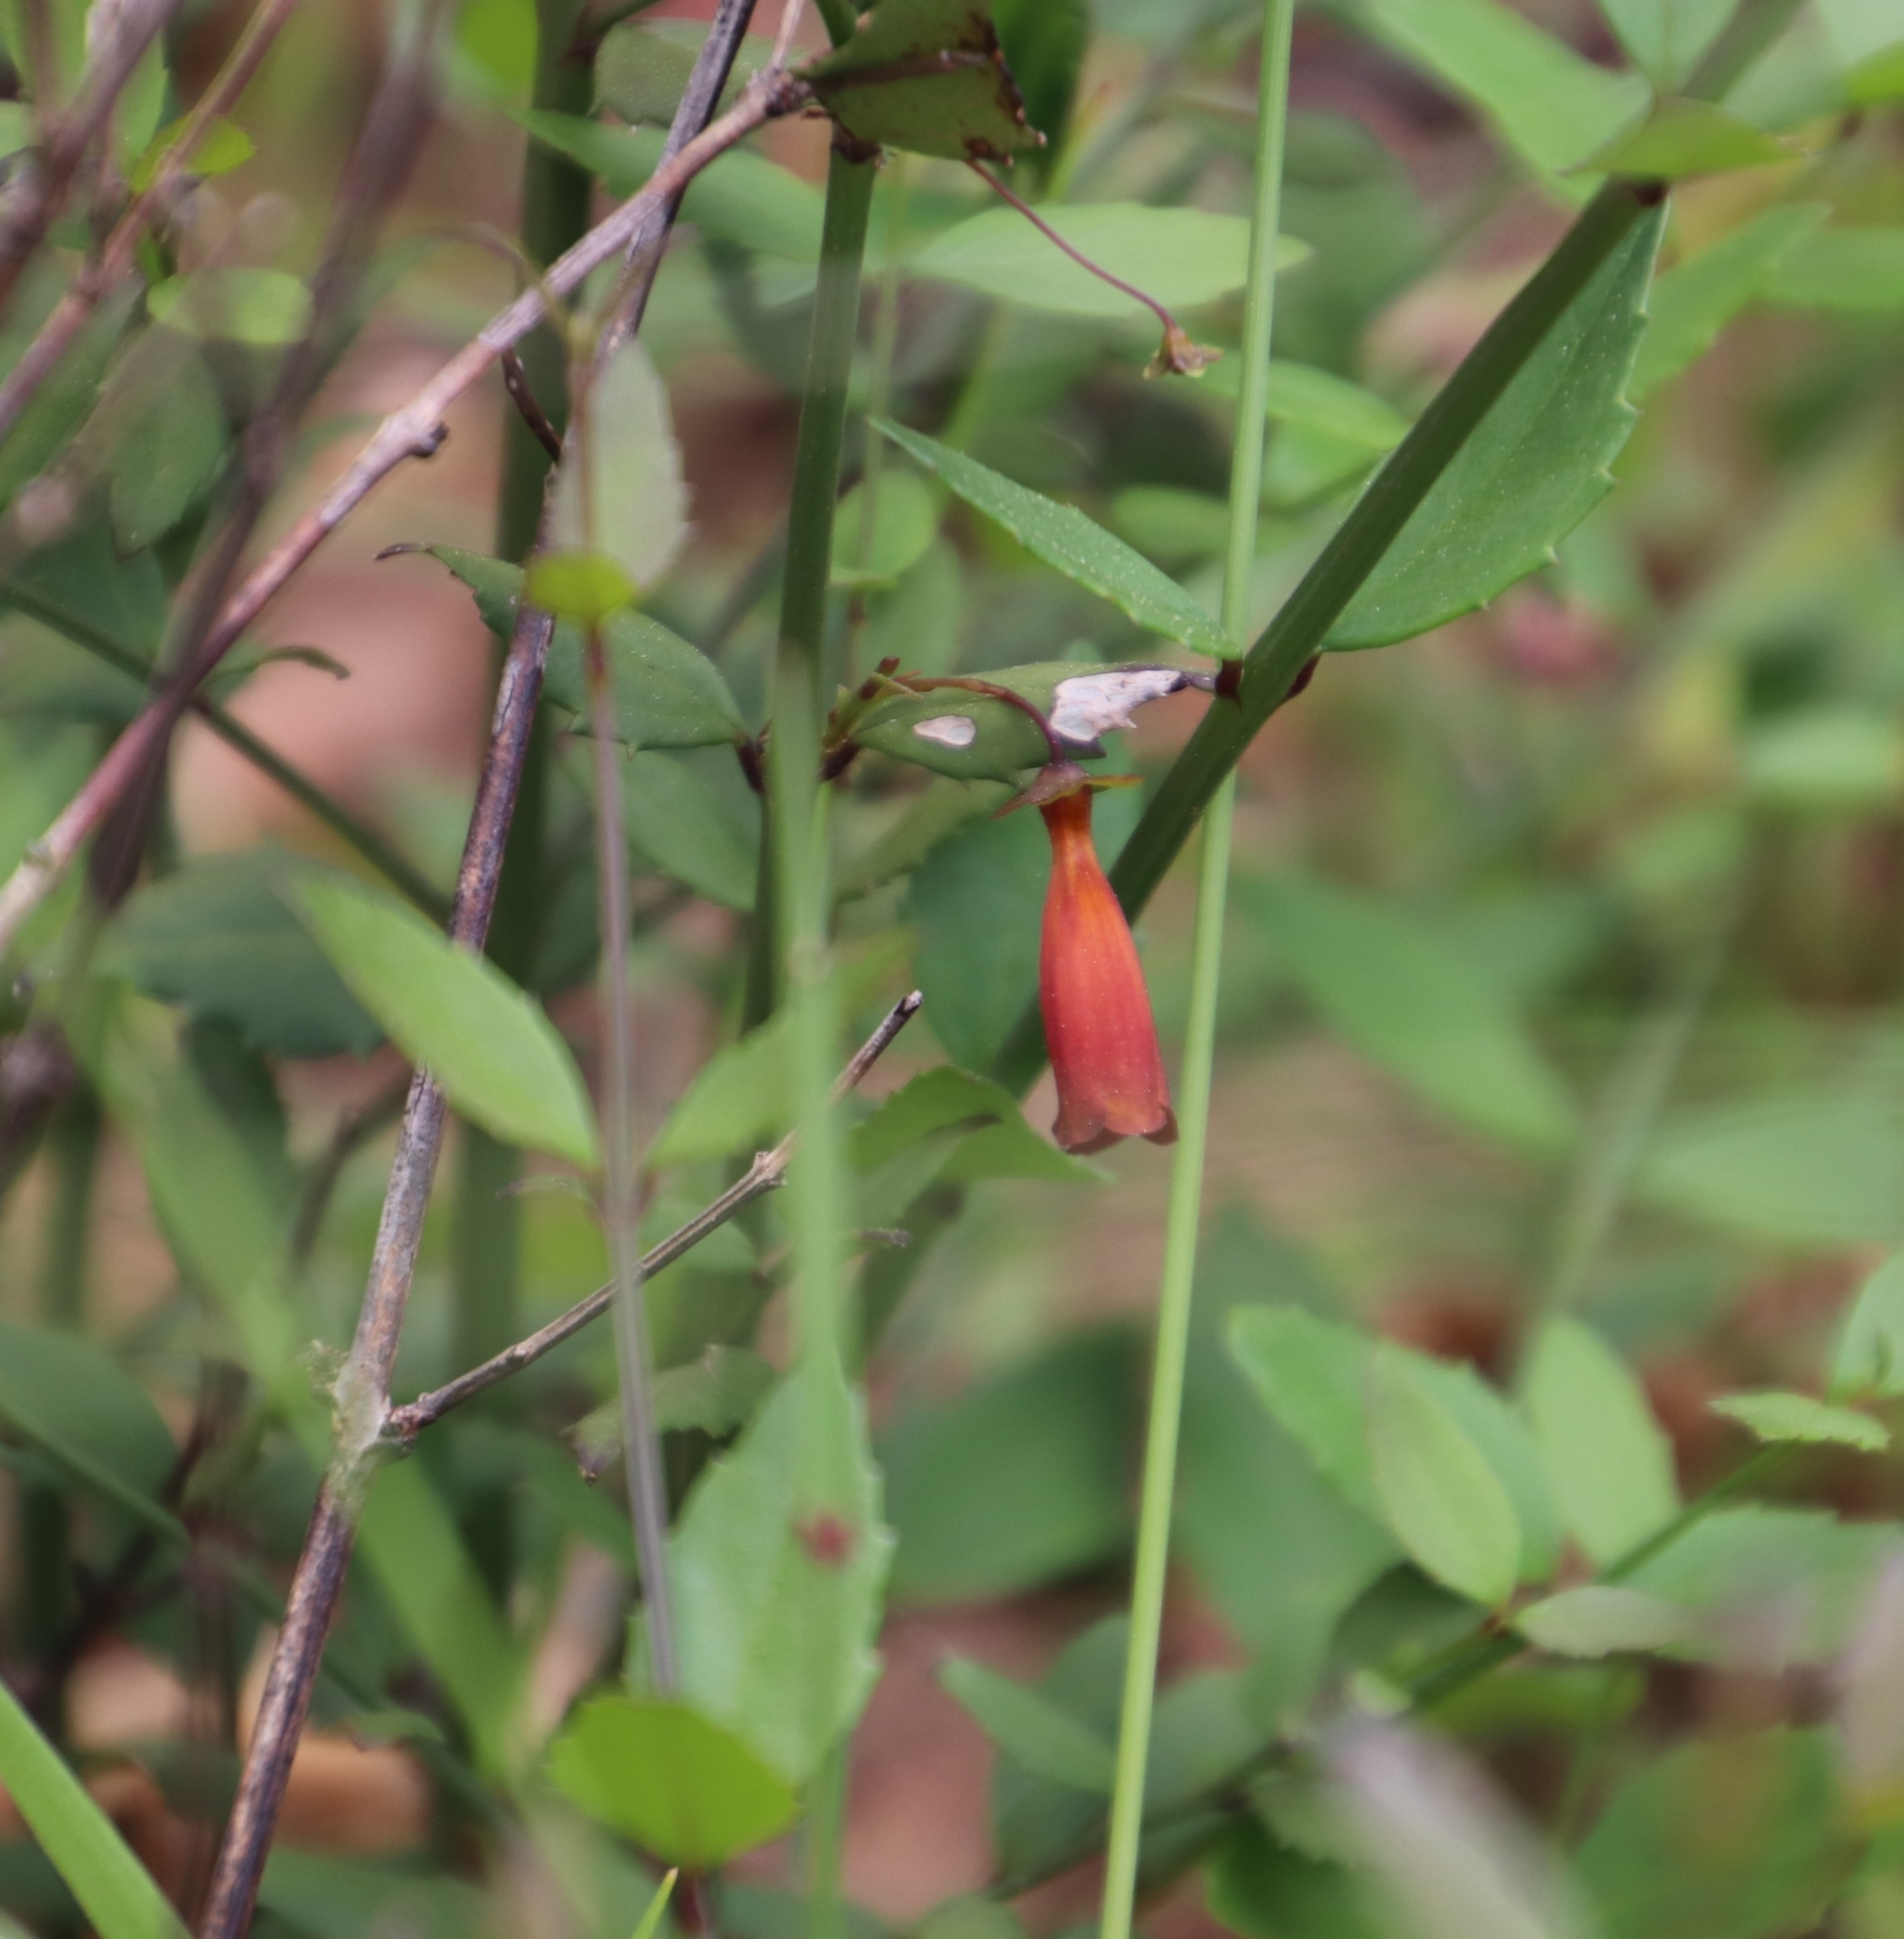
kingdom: Plantae
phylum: Tracheophyta
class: Magnoliopsida
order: Lamiales
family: Stilbaceae
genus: Halleria
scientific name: Halleria elliptica
